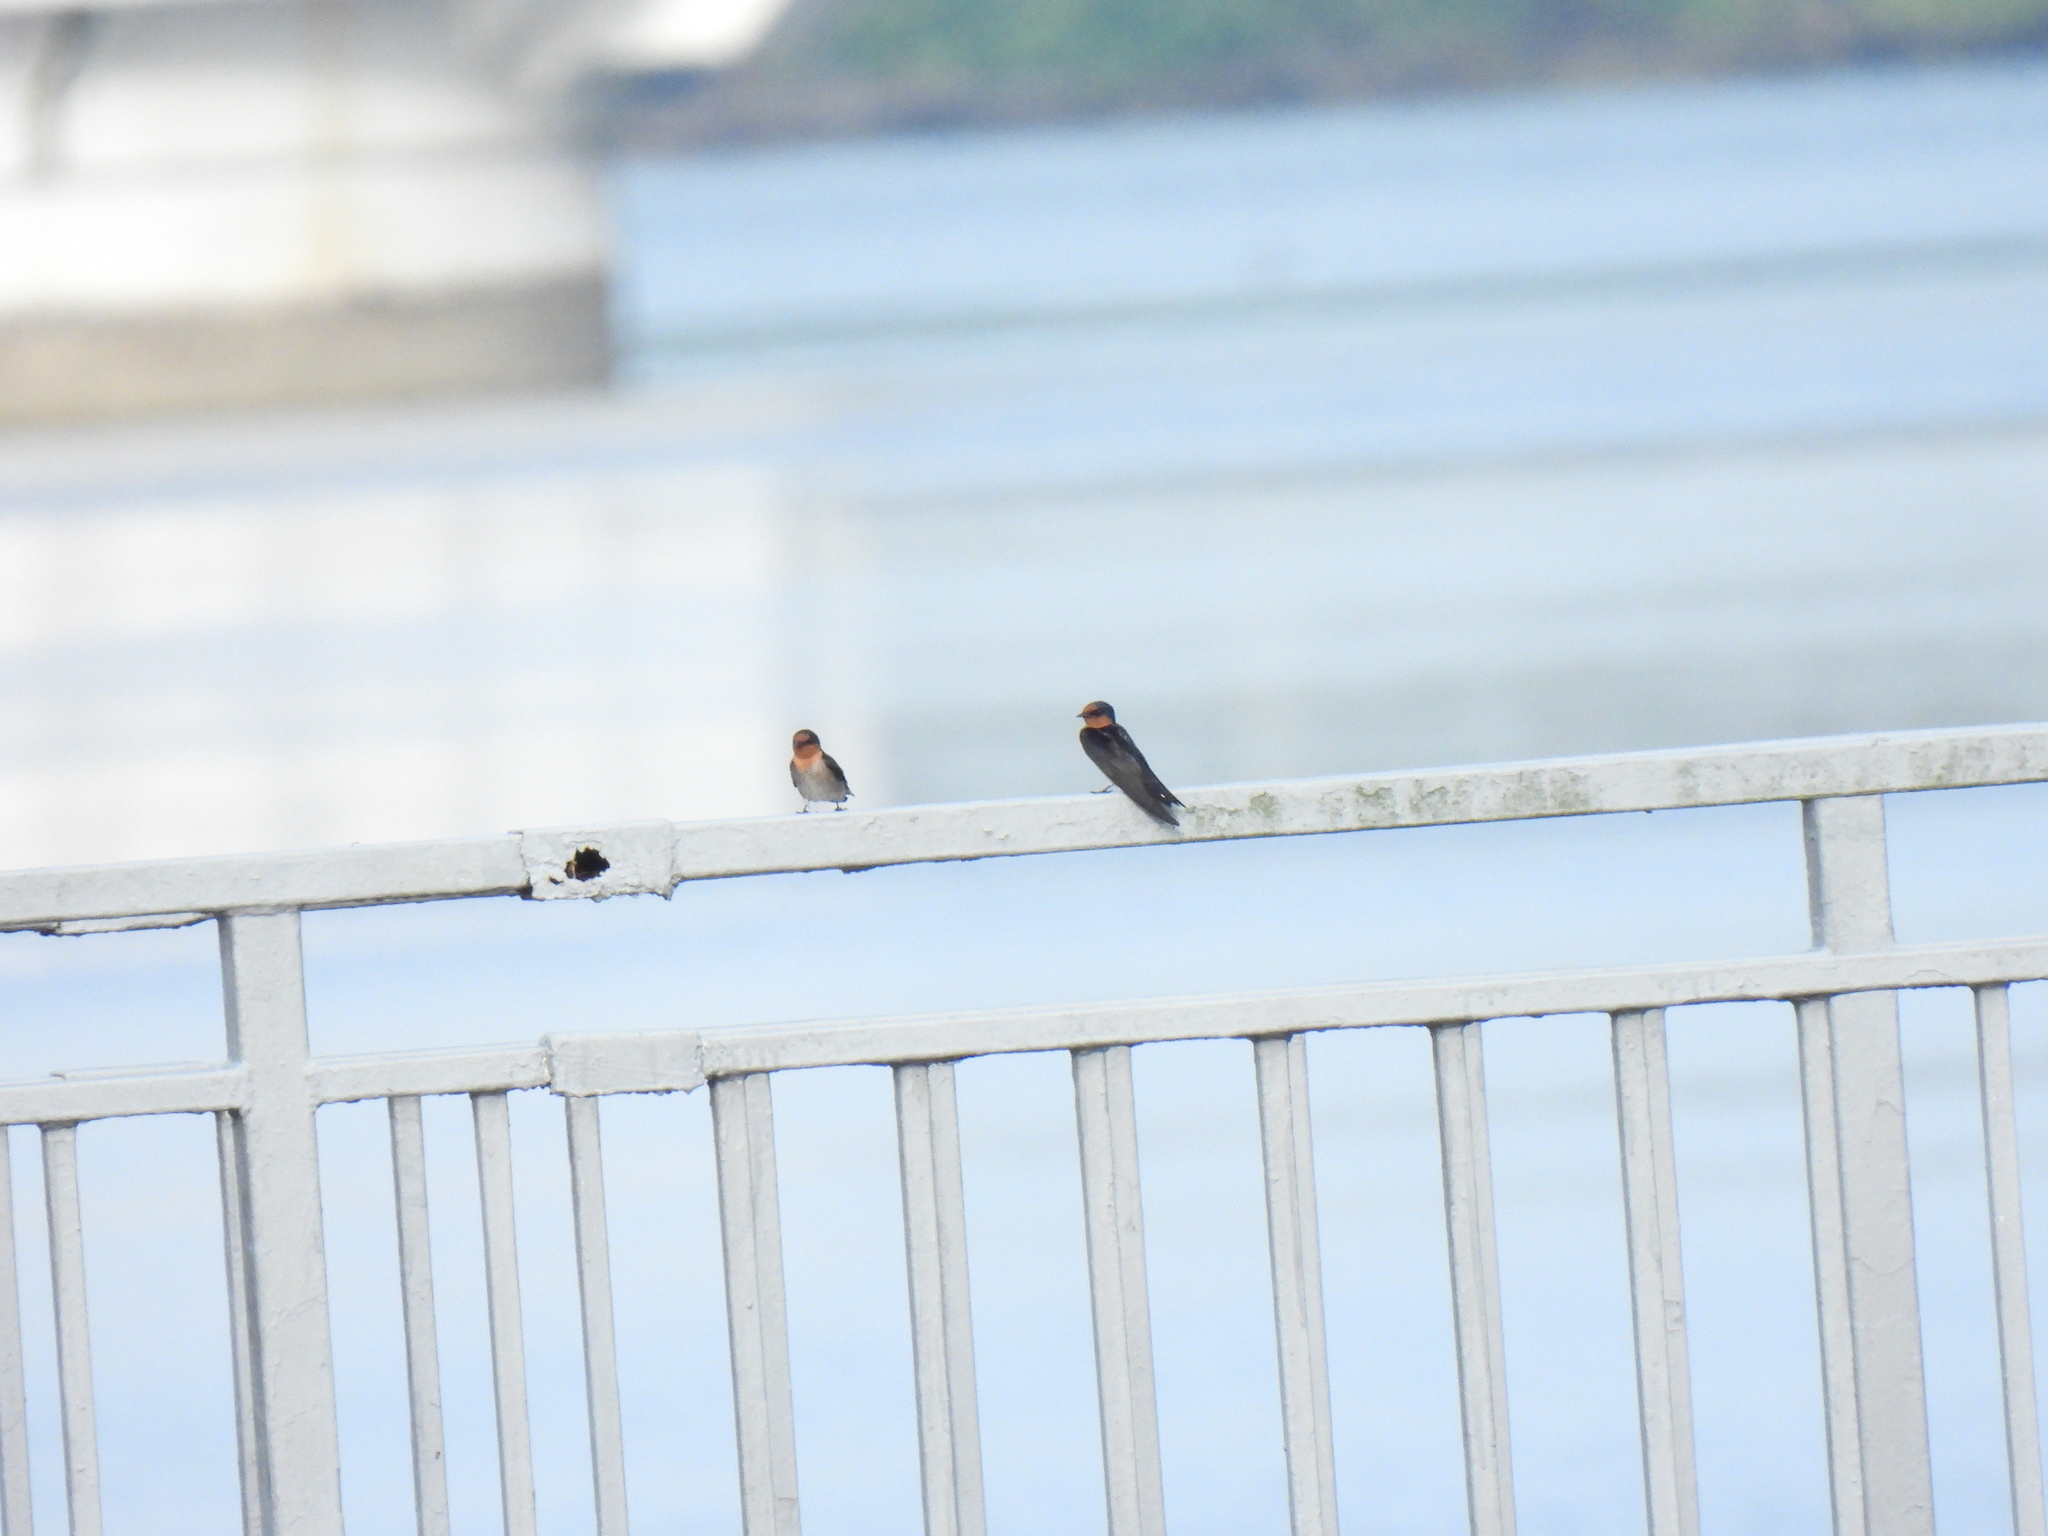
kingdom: Animalia
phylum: Chordata
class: Aves
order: Passeriformes
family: Hirundinidae
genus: Hirundo
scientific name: Hirundo tahitica
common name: Pacific swallow
